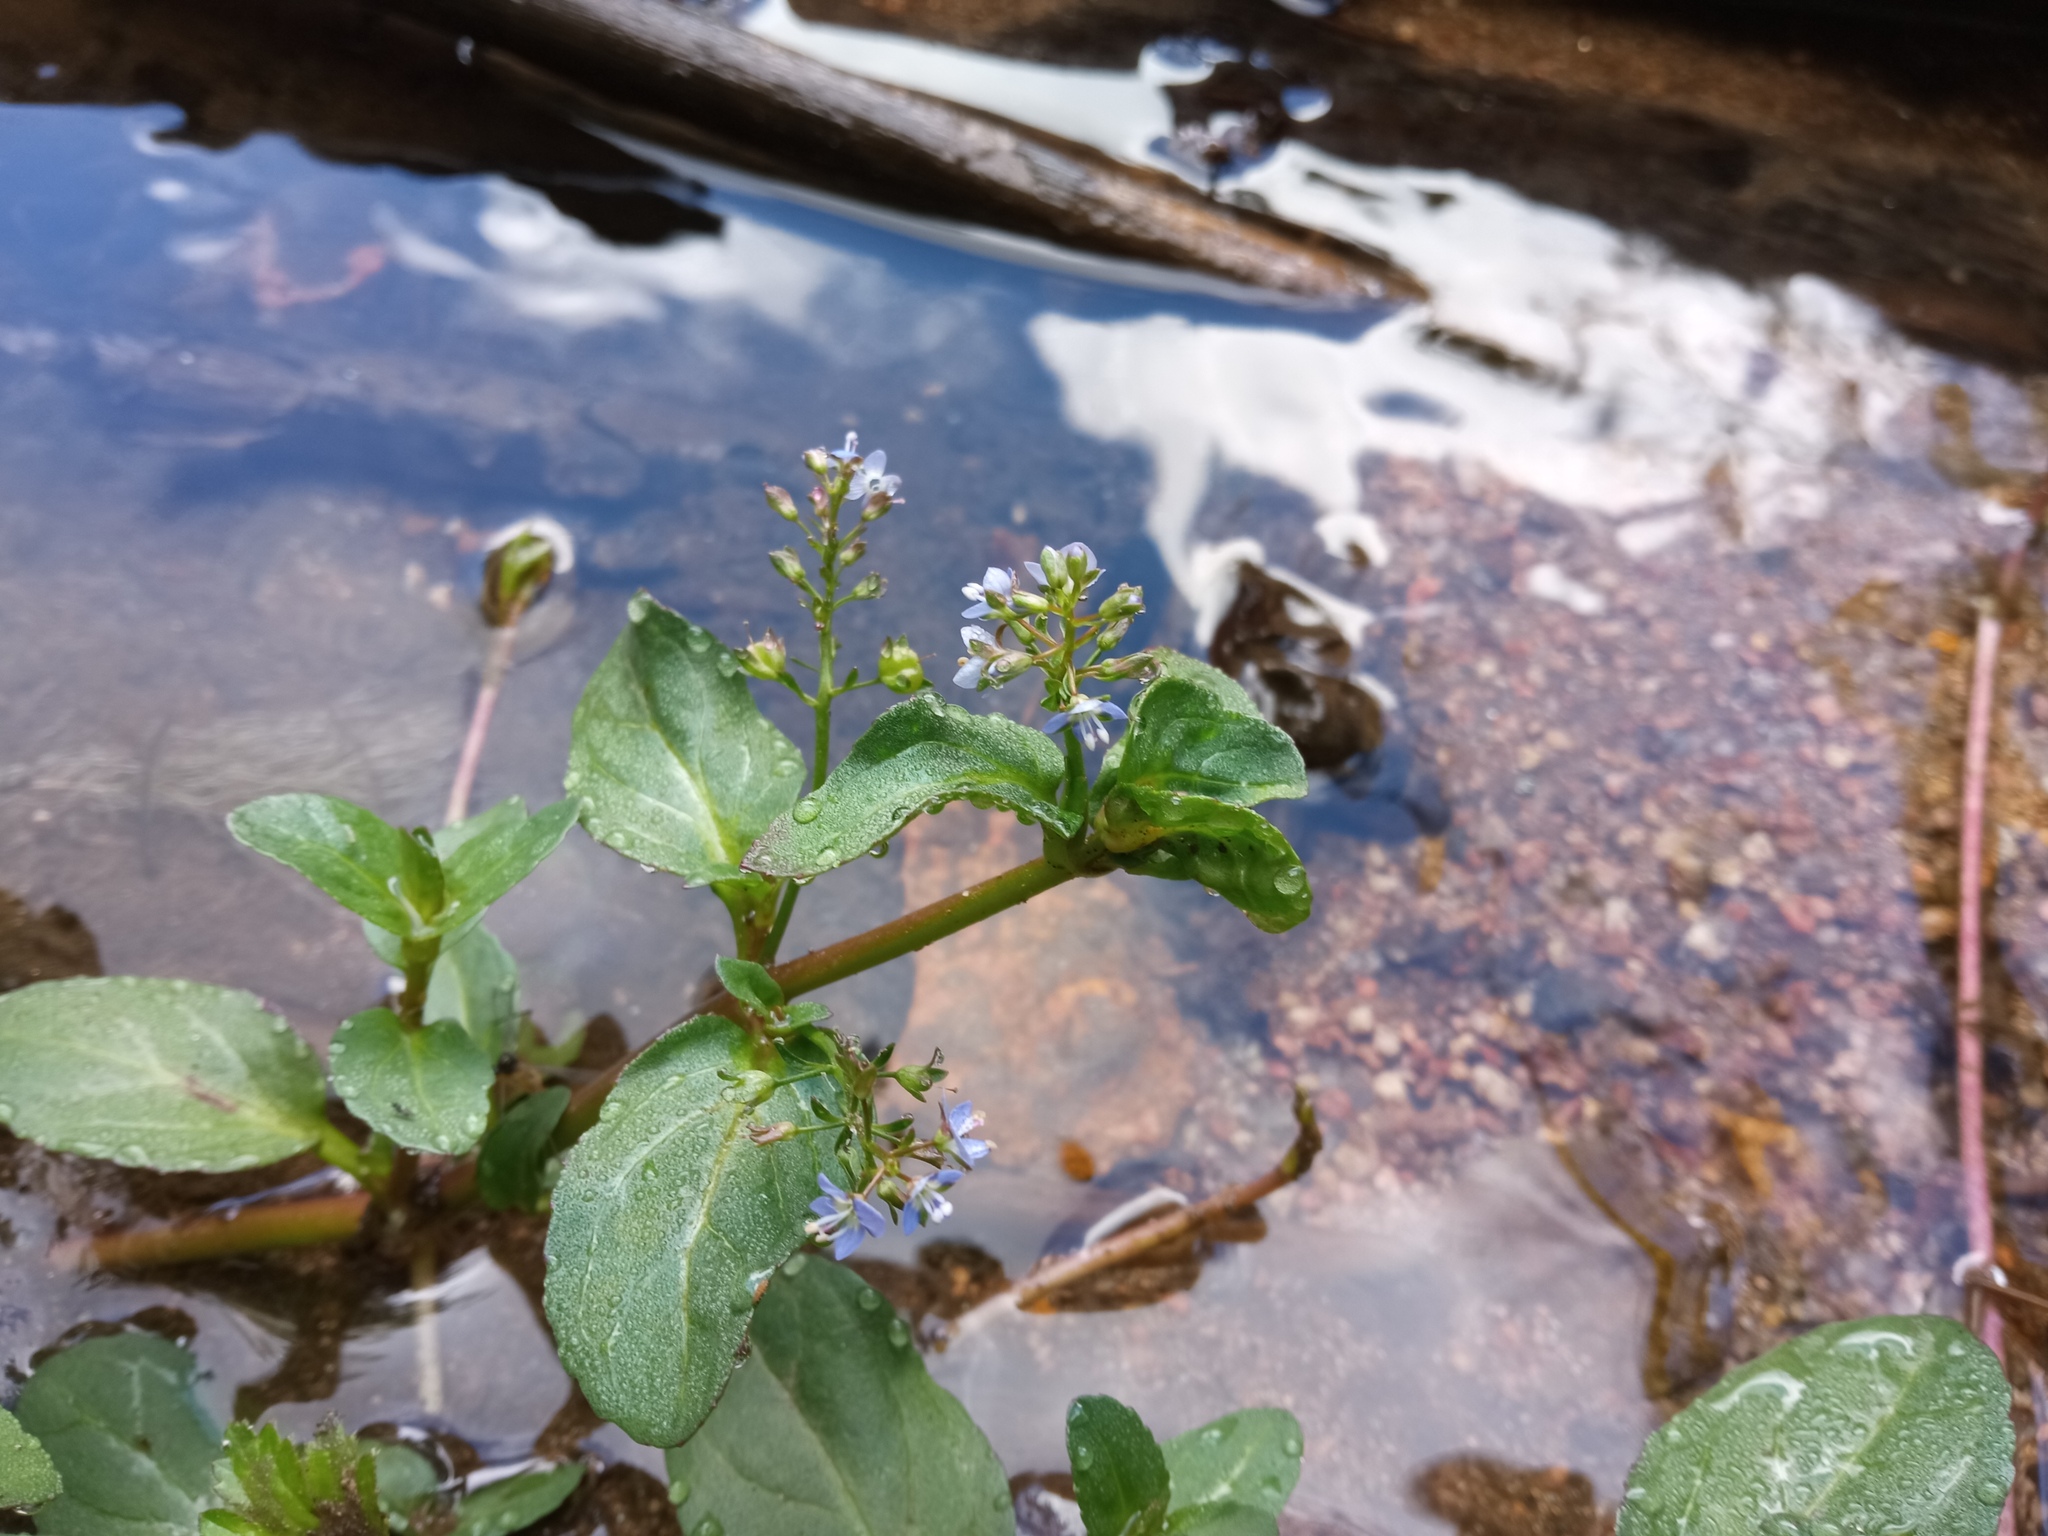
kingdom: Plantae
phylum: Tracheophyta
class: Magnoliopsida
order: Lamiales
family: Plantaginaceae
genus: Veronica
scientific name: Veronica beccabunga
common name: Brooklime
